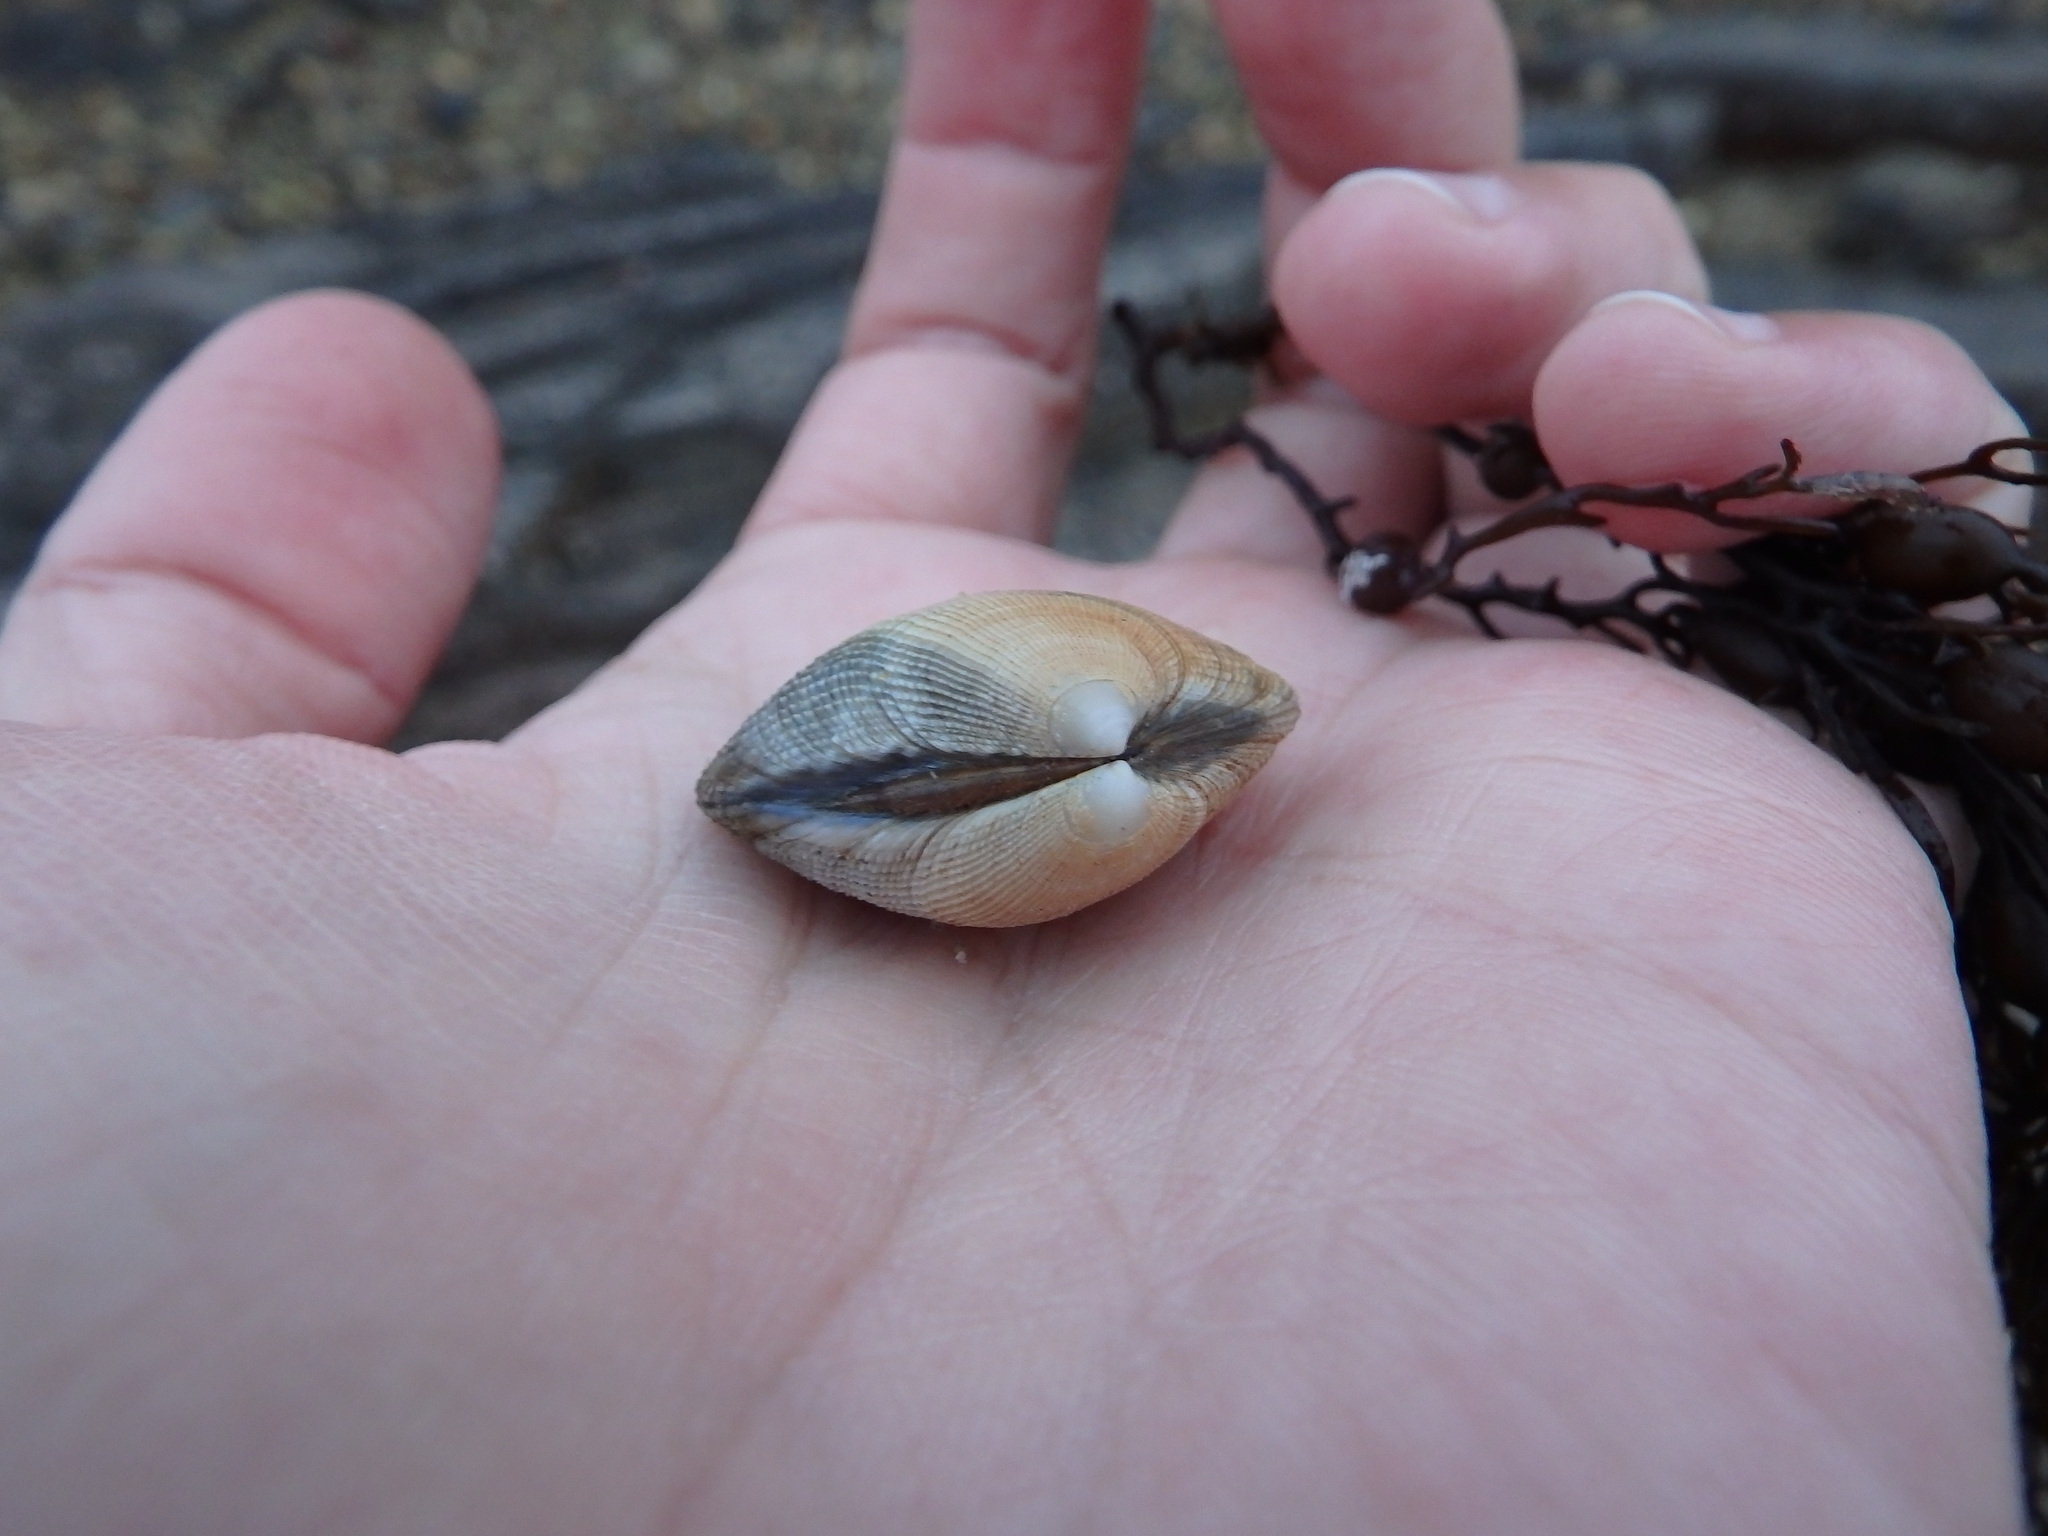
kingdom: Animalia
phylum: Mollusca
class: Bivalvia
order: Venerida
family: Veneridae
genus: Ruditapes
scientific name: Ruditapes decussatus
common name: Chequered carpet shell
